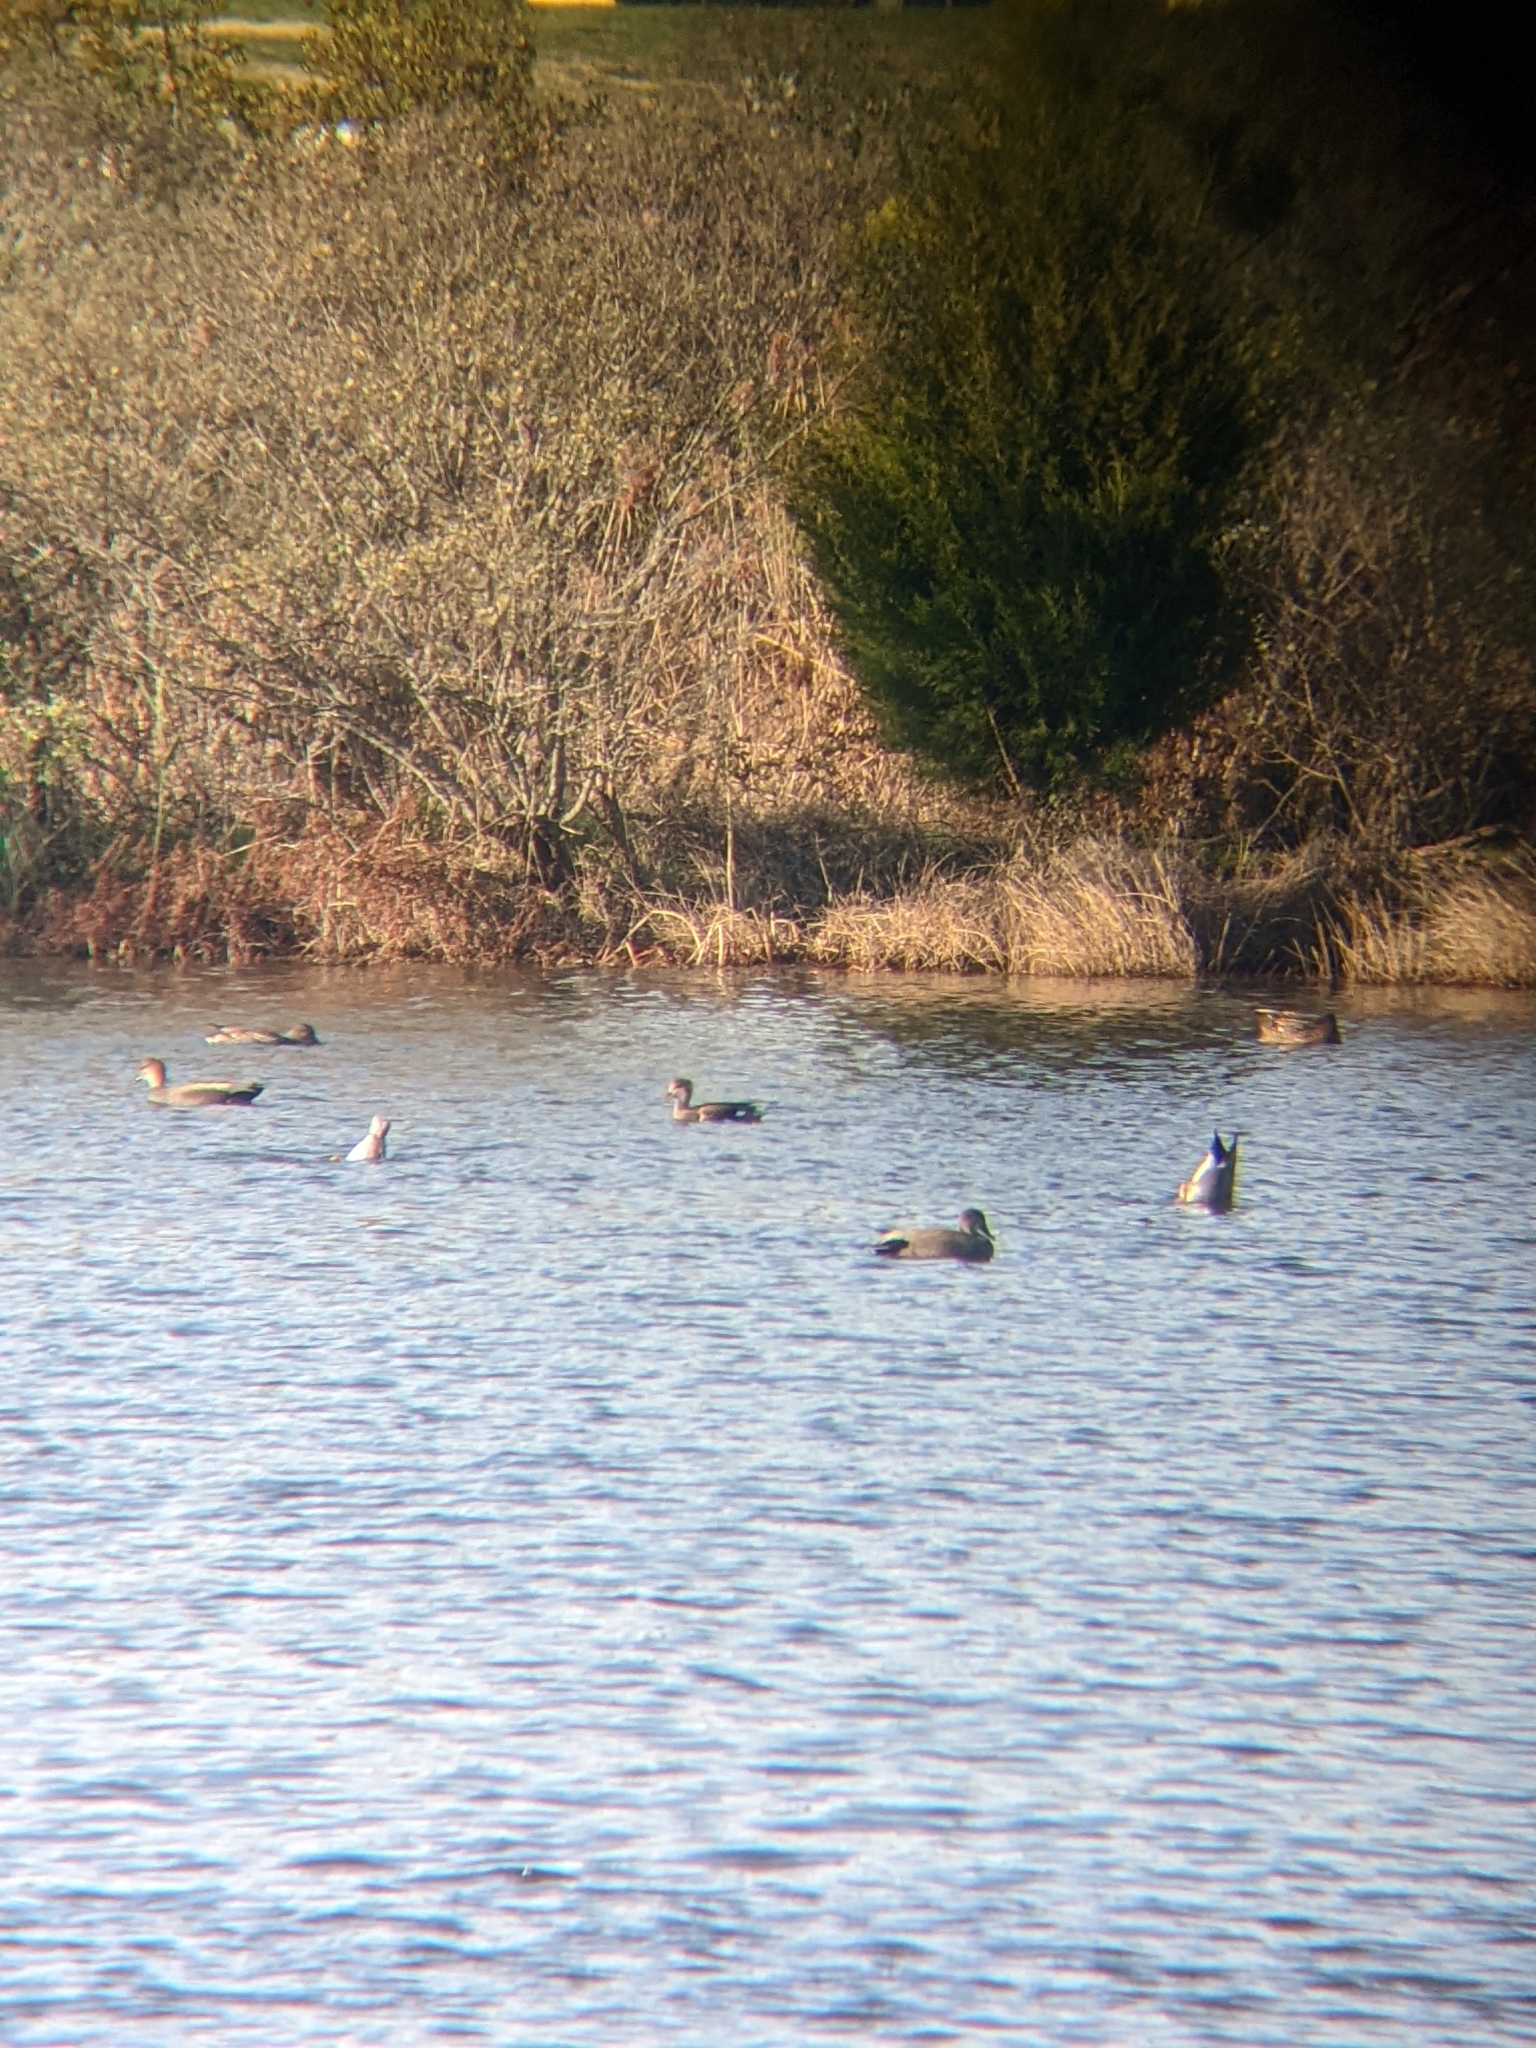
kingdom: Animalia
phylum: Chordata
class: Aves
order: Anseriformes
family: Anatidae
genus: Mareca
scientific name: Mareca strepera
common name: Gadwall
